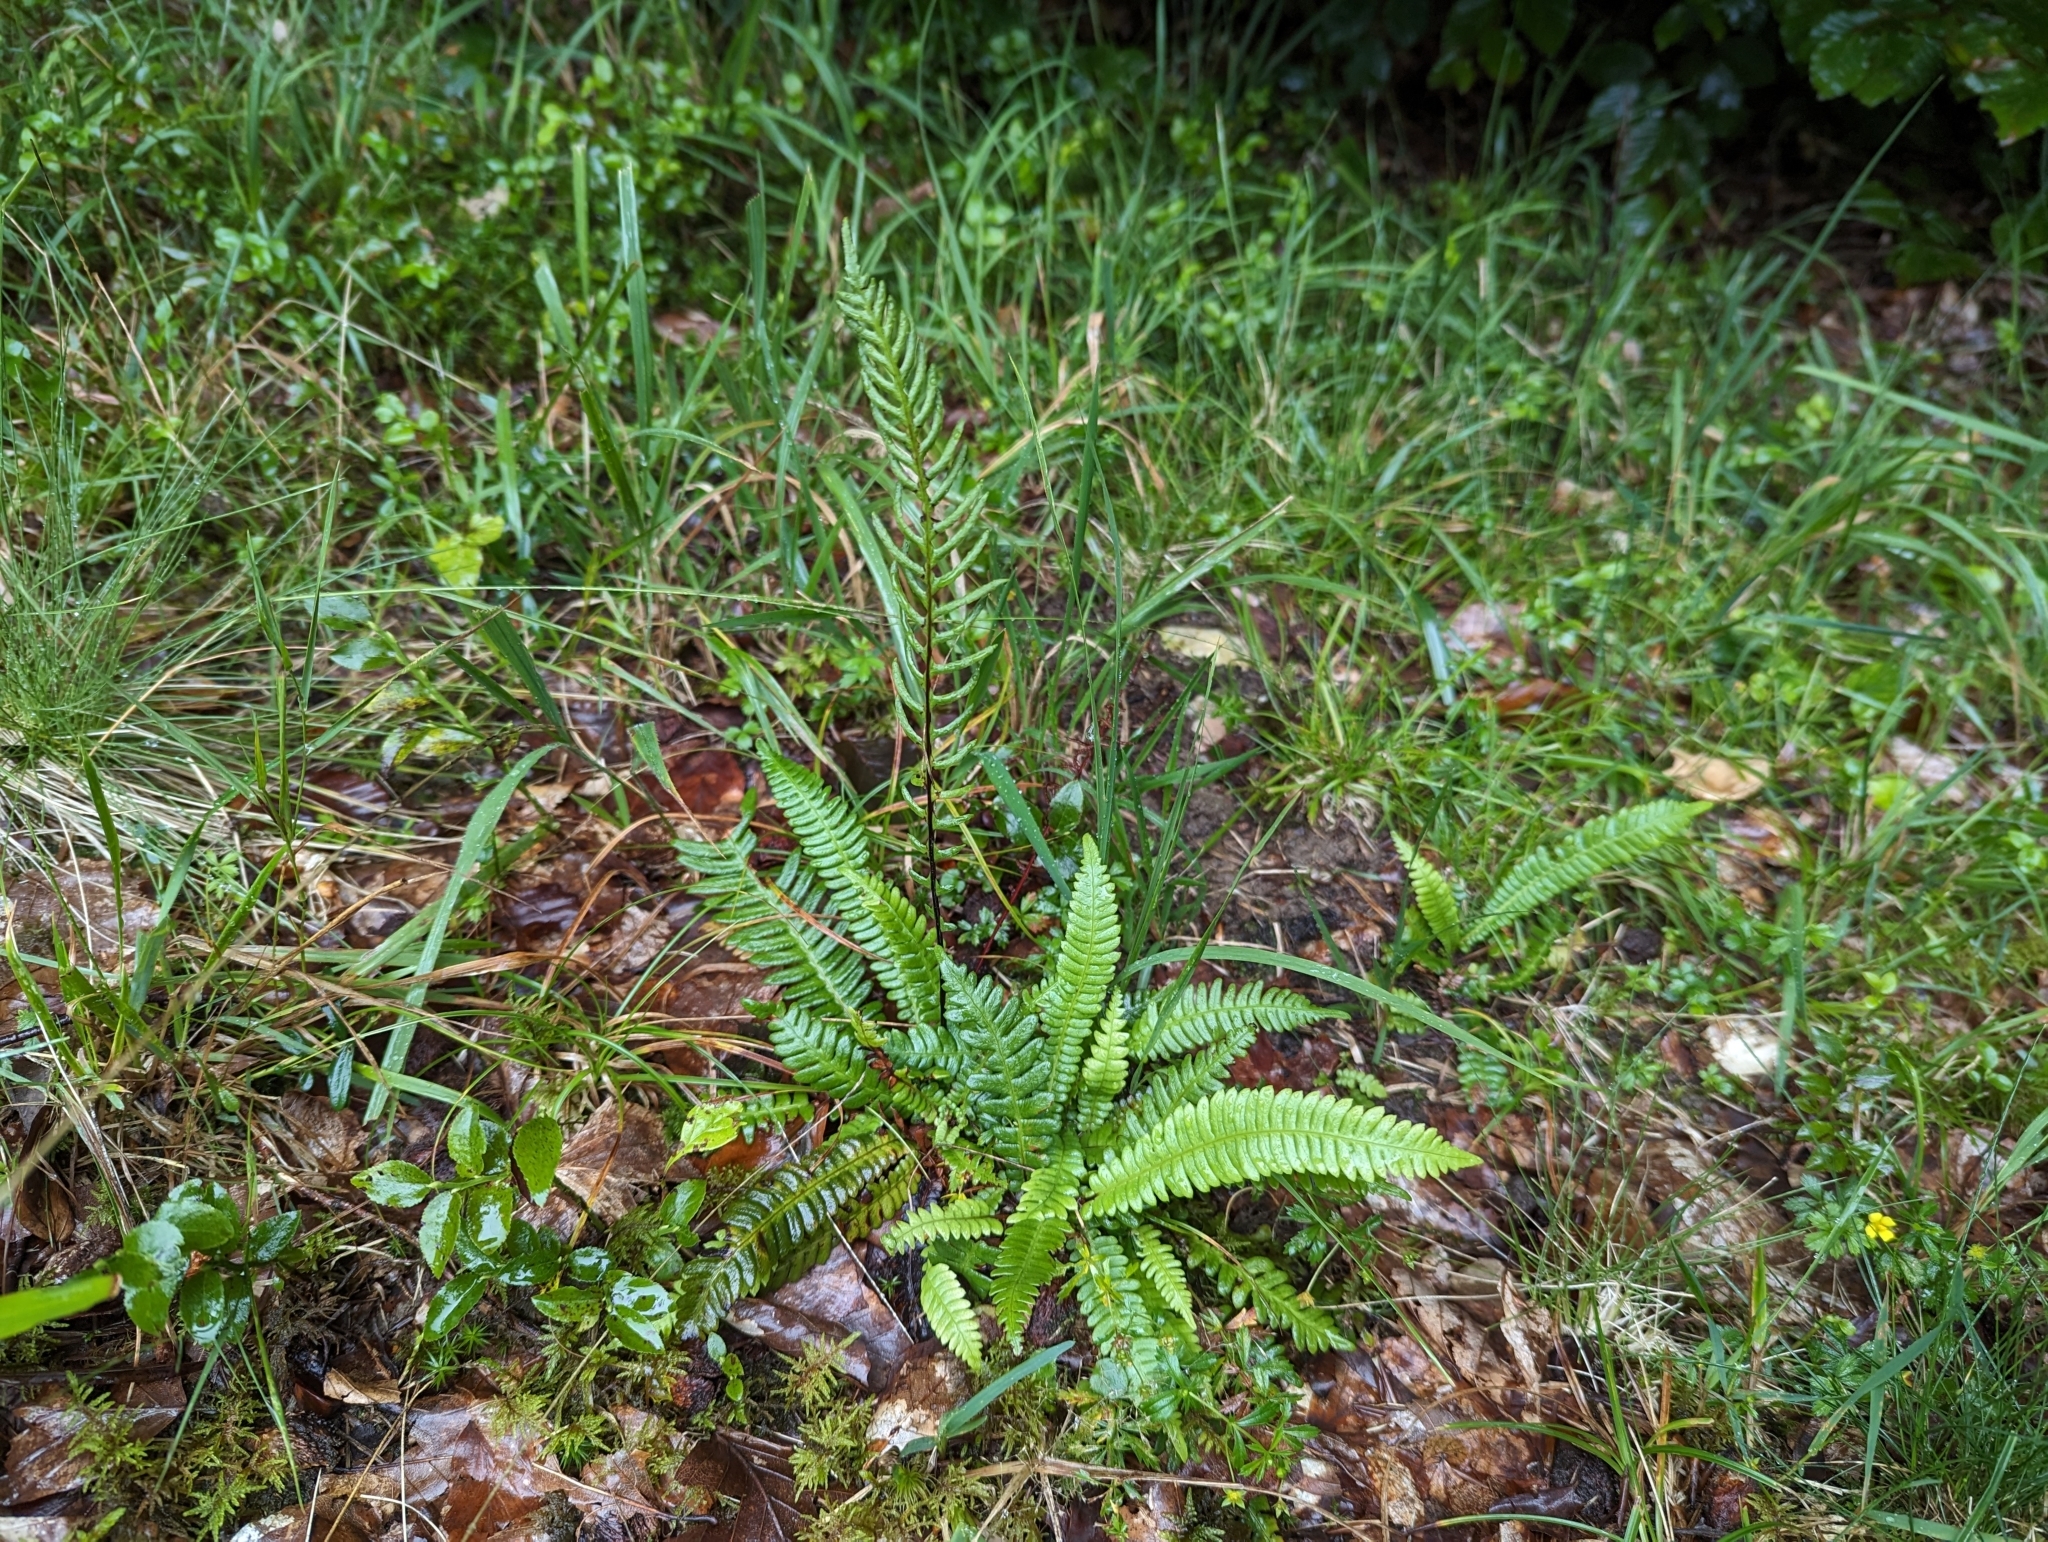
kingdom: Plantae
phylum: Tracheophyta
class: Polypodiopsida
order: Polypodiales
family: Blechnaceae
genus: Struthiopteris
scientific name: Struthiopteris spicant
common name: Deer fern
